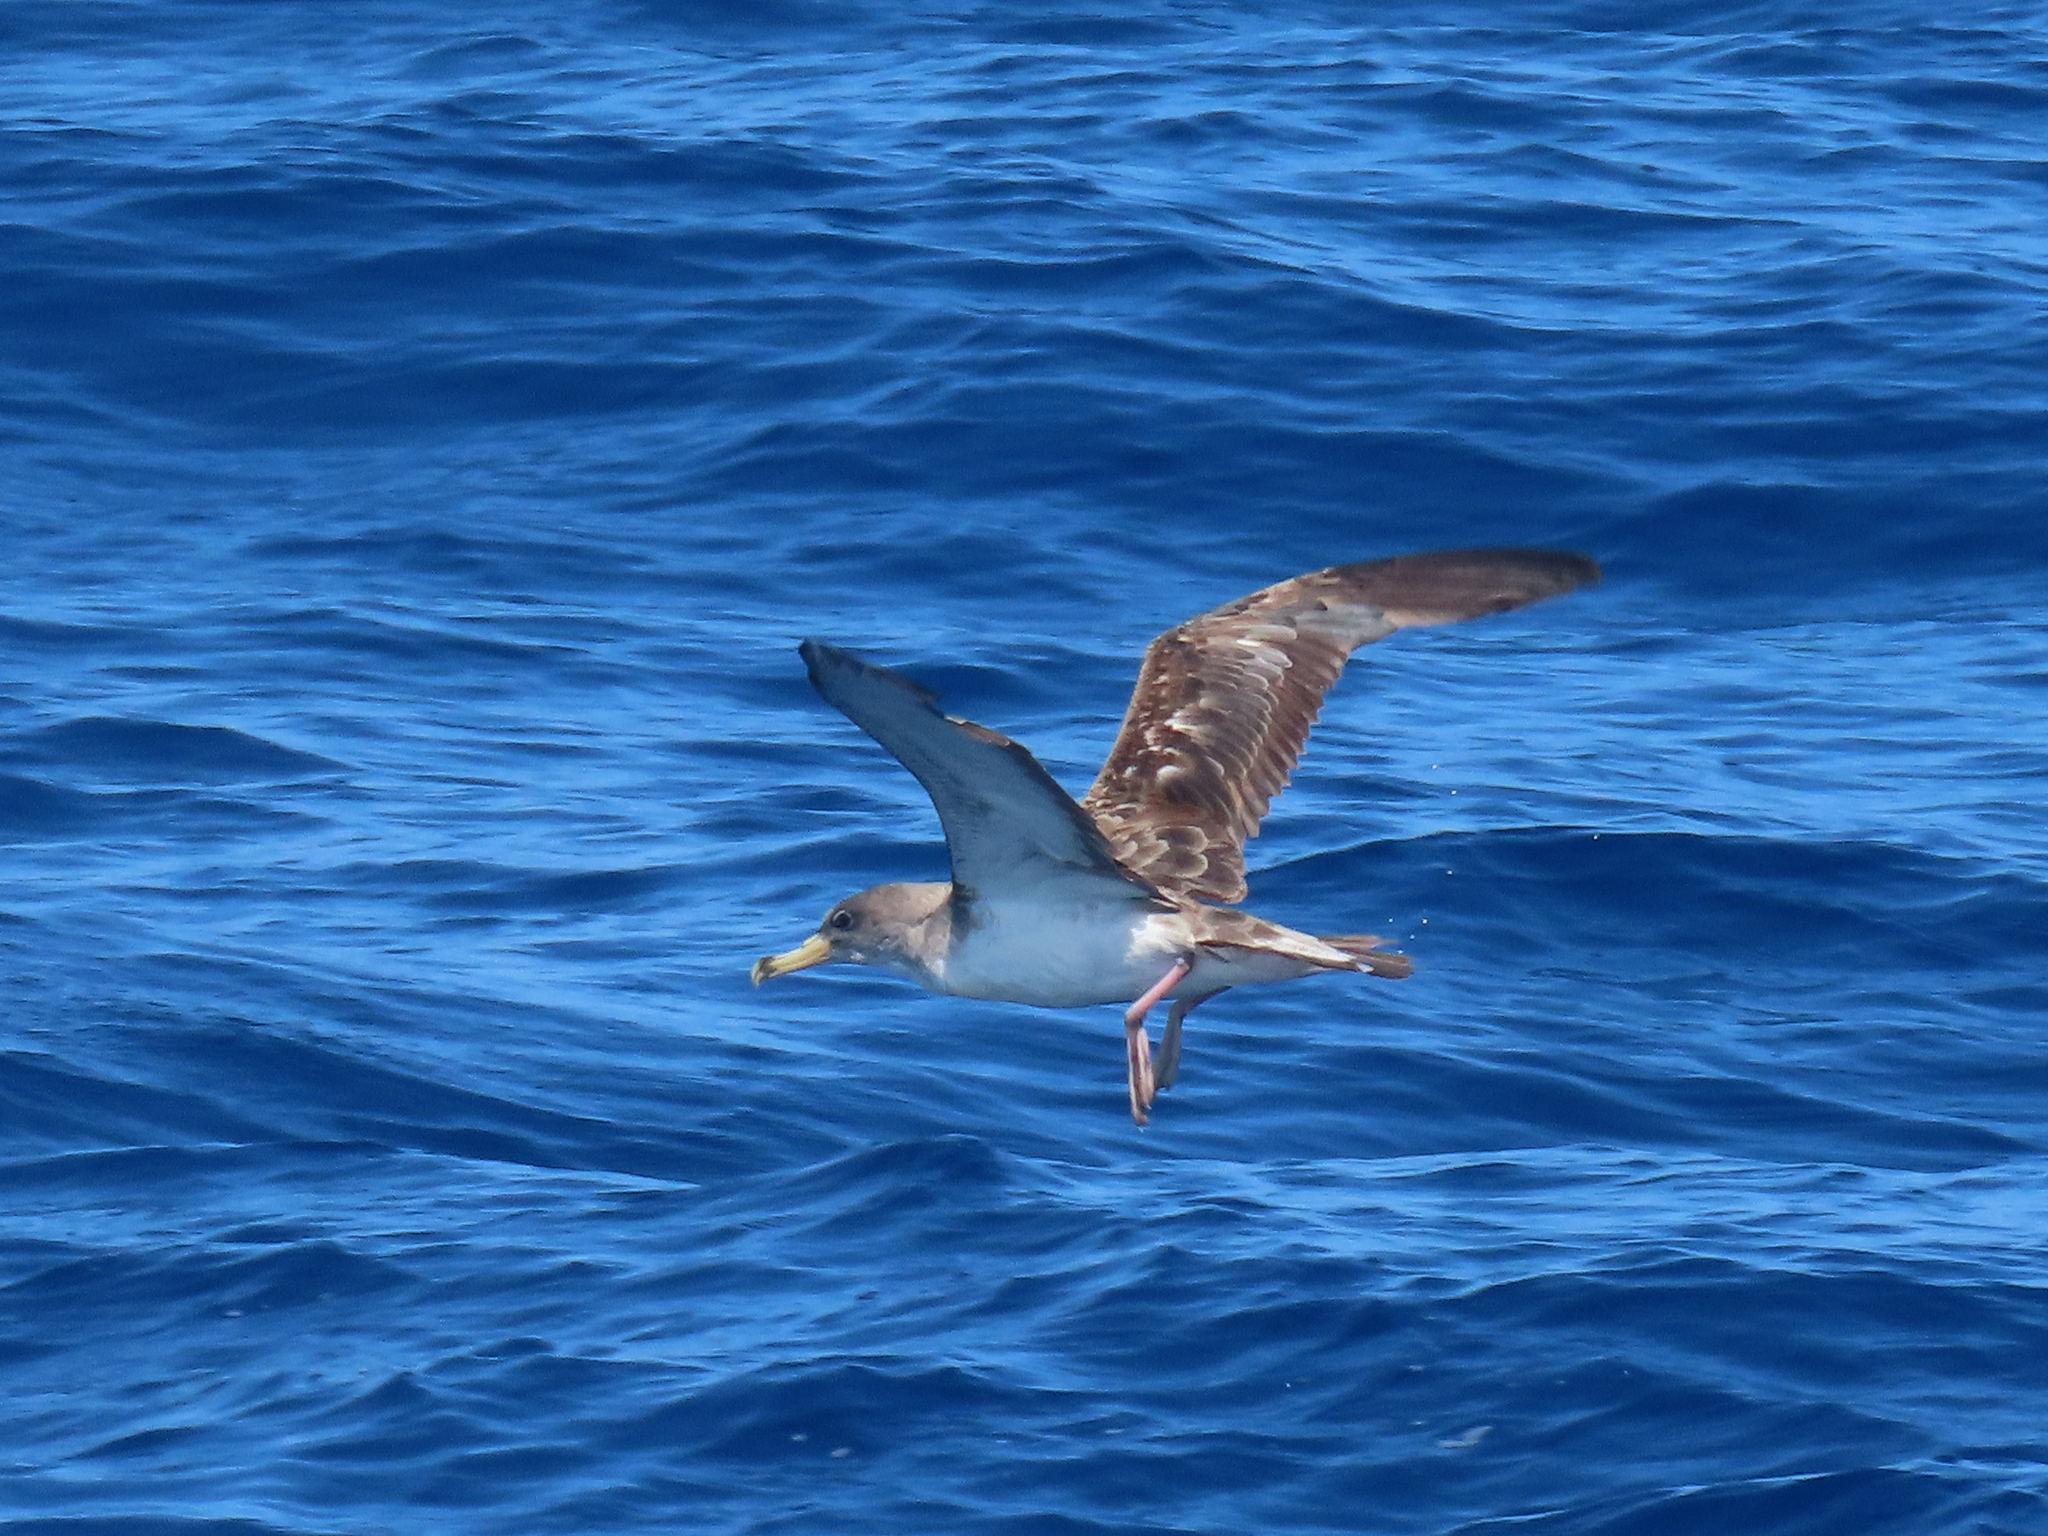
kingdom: Animalia
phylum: Chordata
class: Aves
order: Procellariiformes
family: Procellariidae
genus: Calonectris
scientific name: Calonectris diomedea
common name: Cory's shearwater
